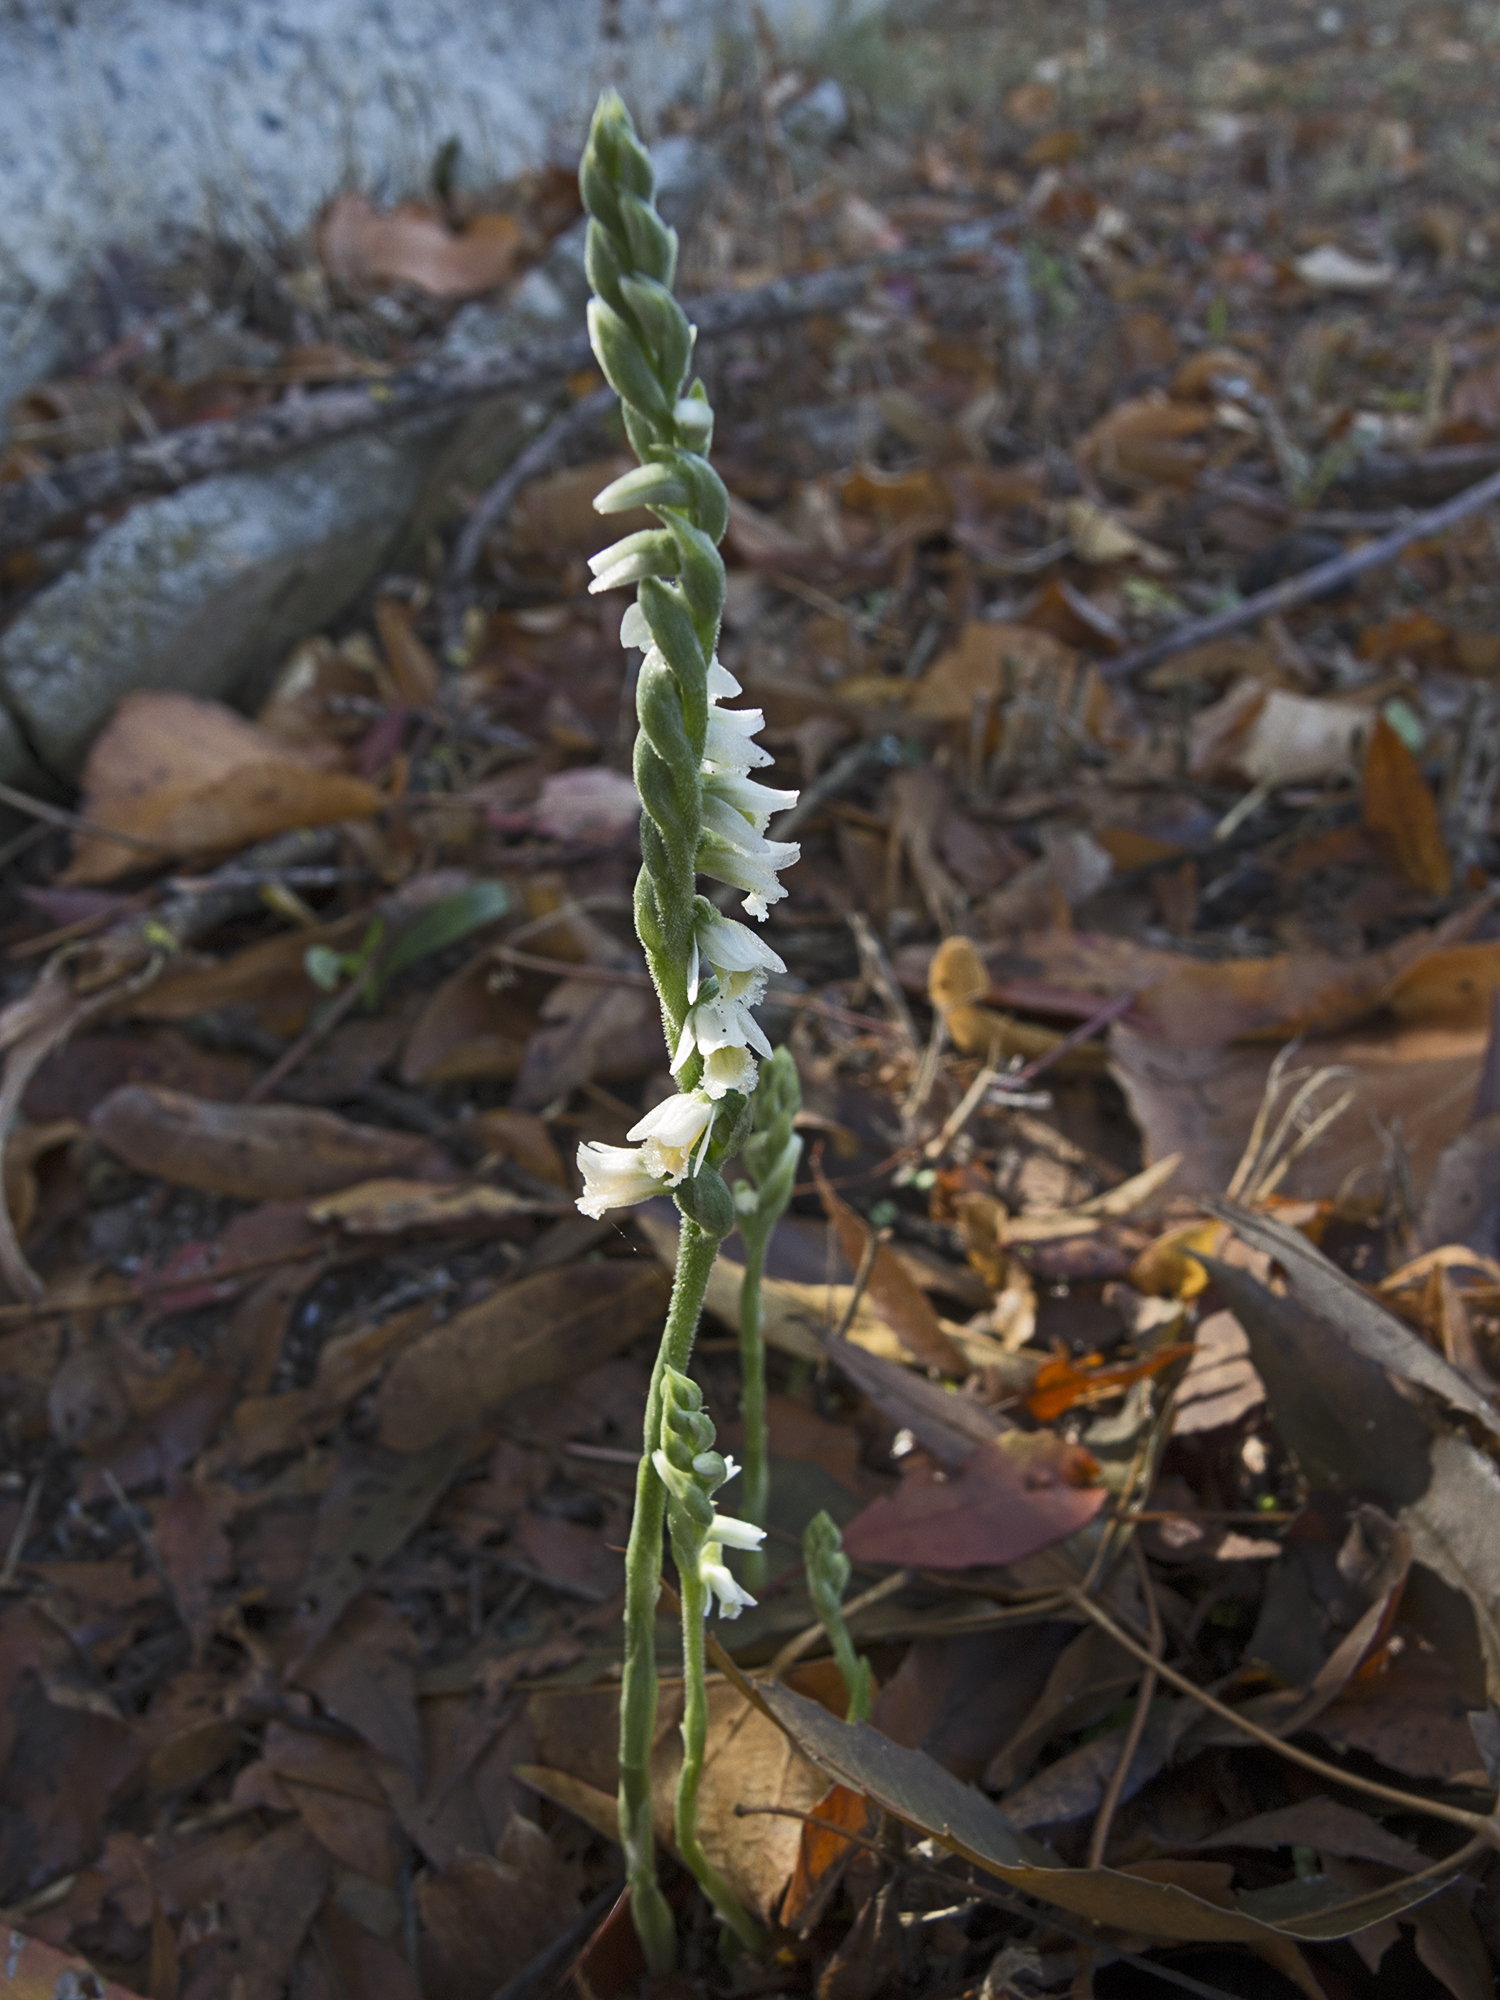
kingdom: Plantae
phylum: Tracheophyta
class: Liliopsida
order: Asparagales
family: Orchidaceae
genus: Spiranthes
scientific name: Spiranthes spiralis
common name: Autumn lady's-tresses
